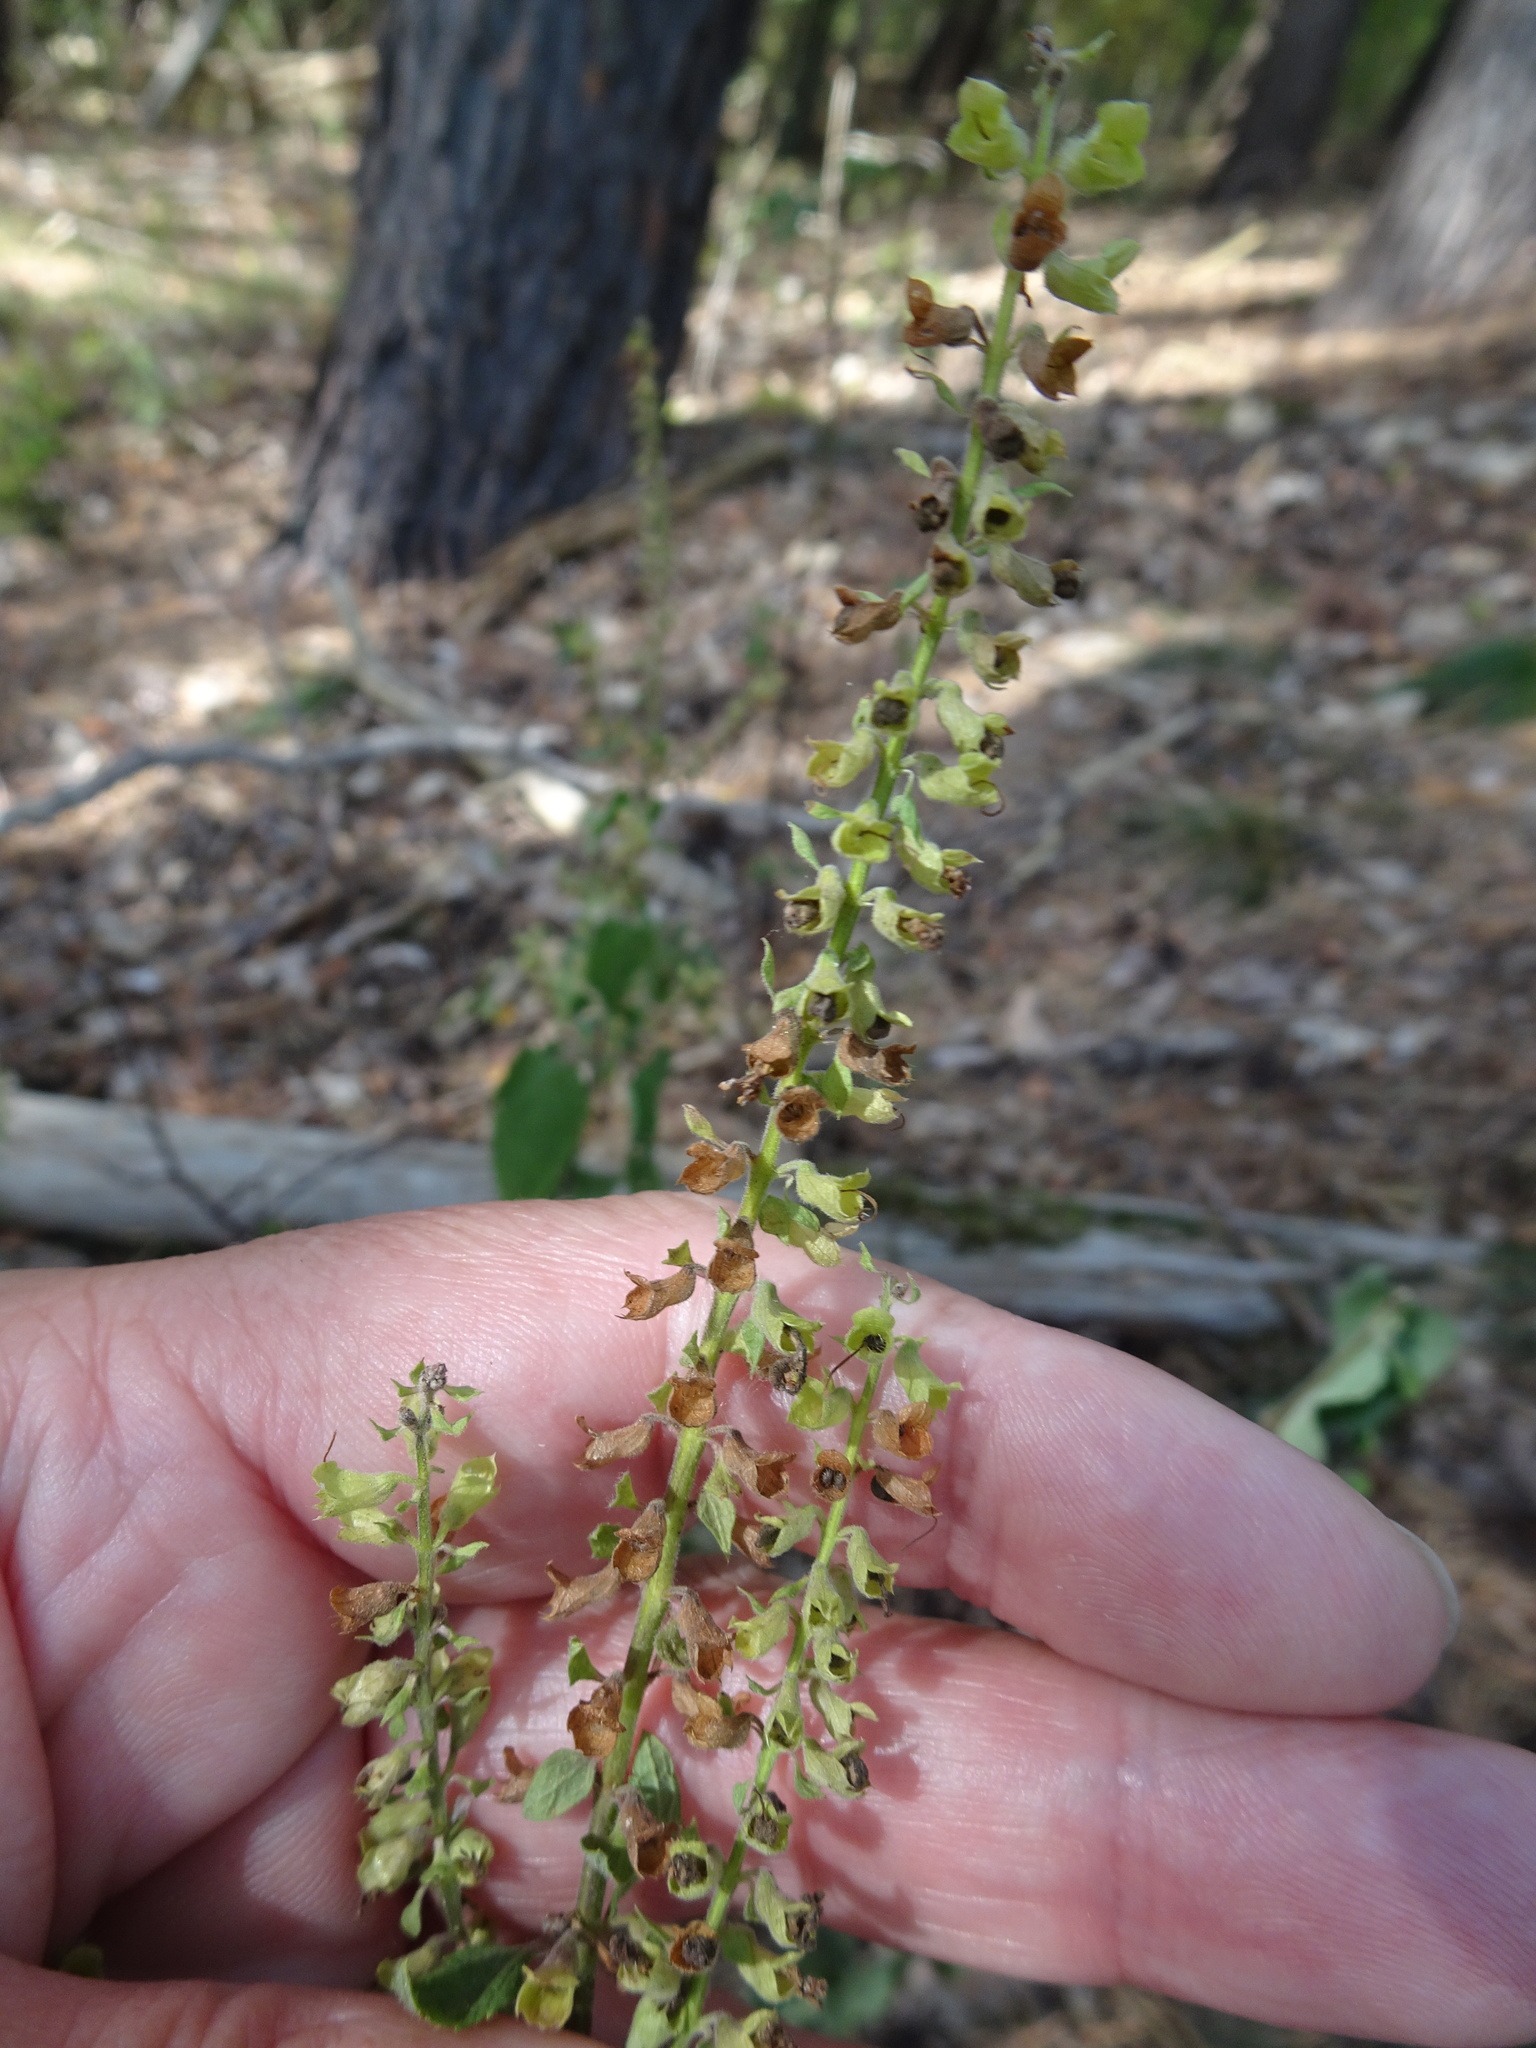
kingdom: Plantae
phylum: Tracheophyta
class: Magnoliopsida
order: Lamiales
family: Lamiaceae
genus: Teucrium
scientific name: Teucrium scorodonia
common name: Woodland germander
